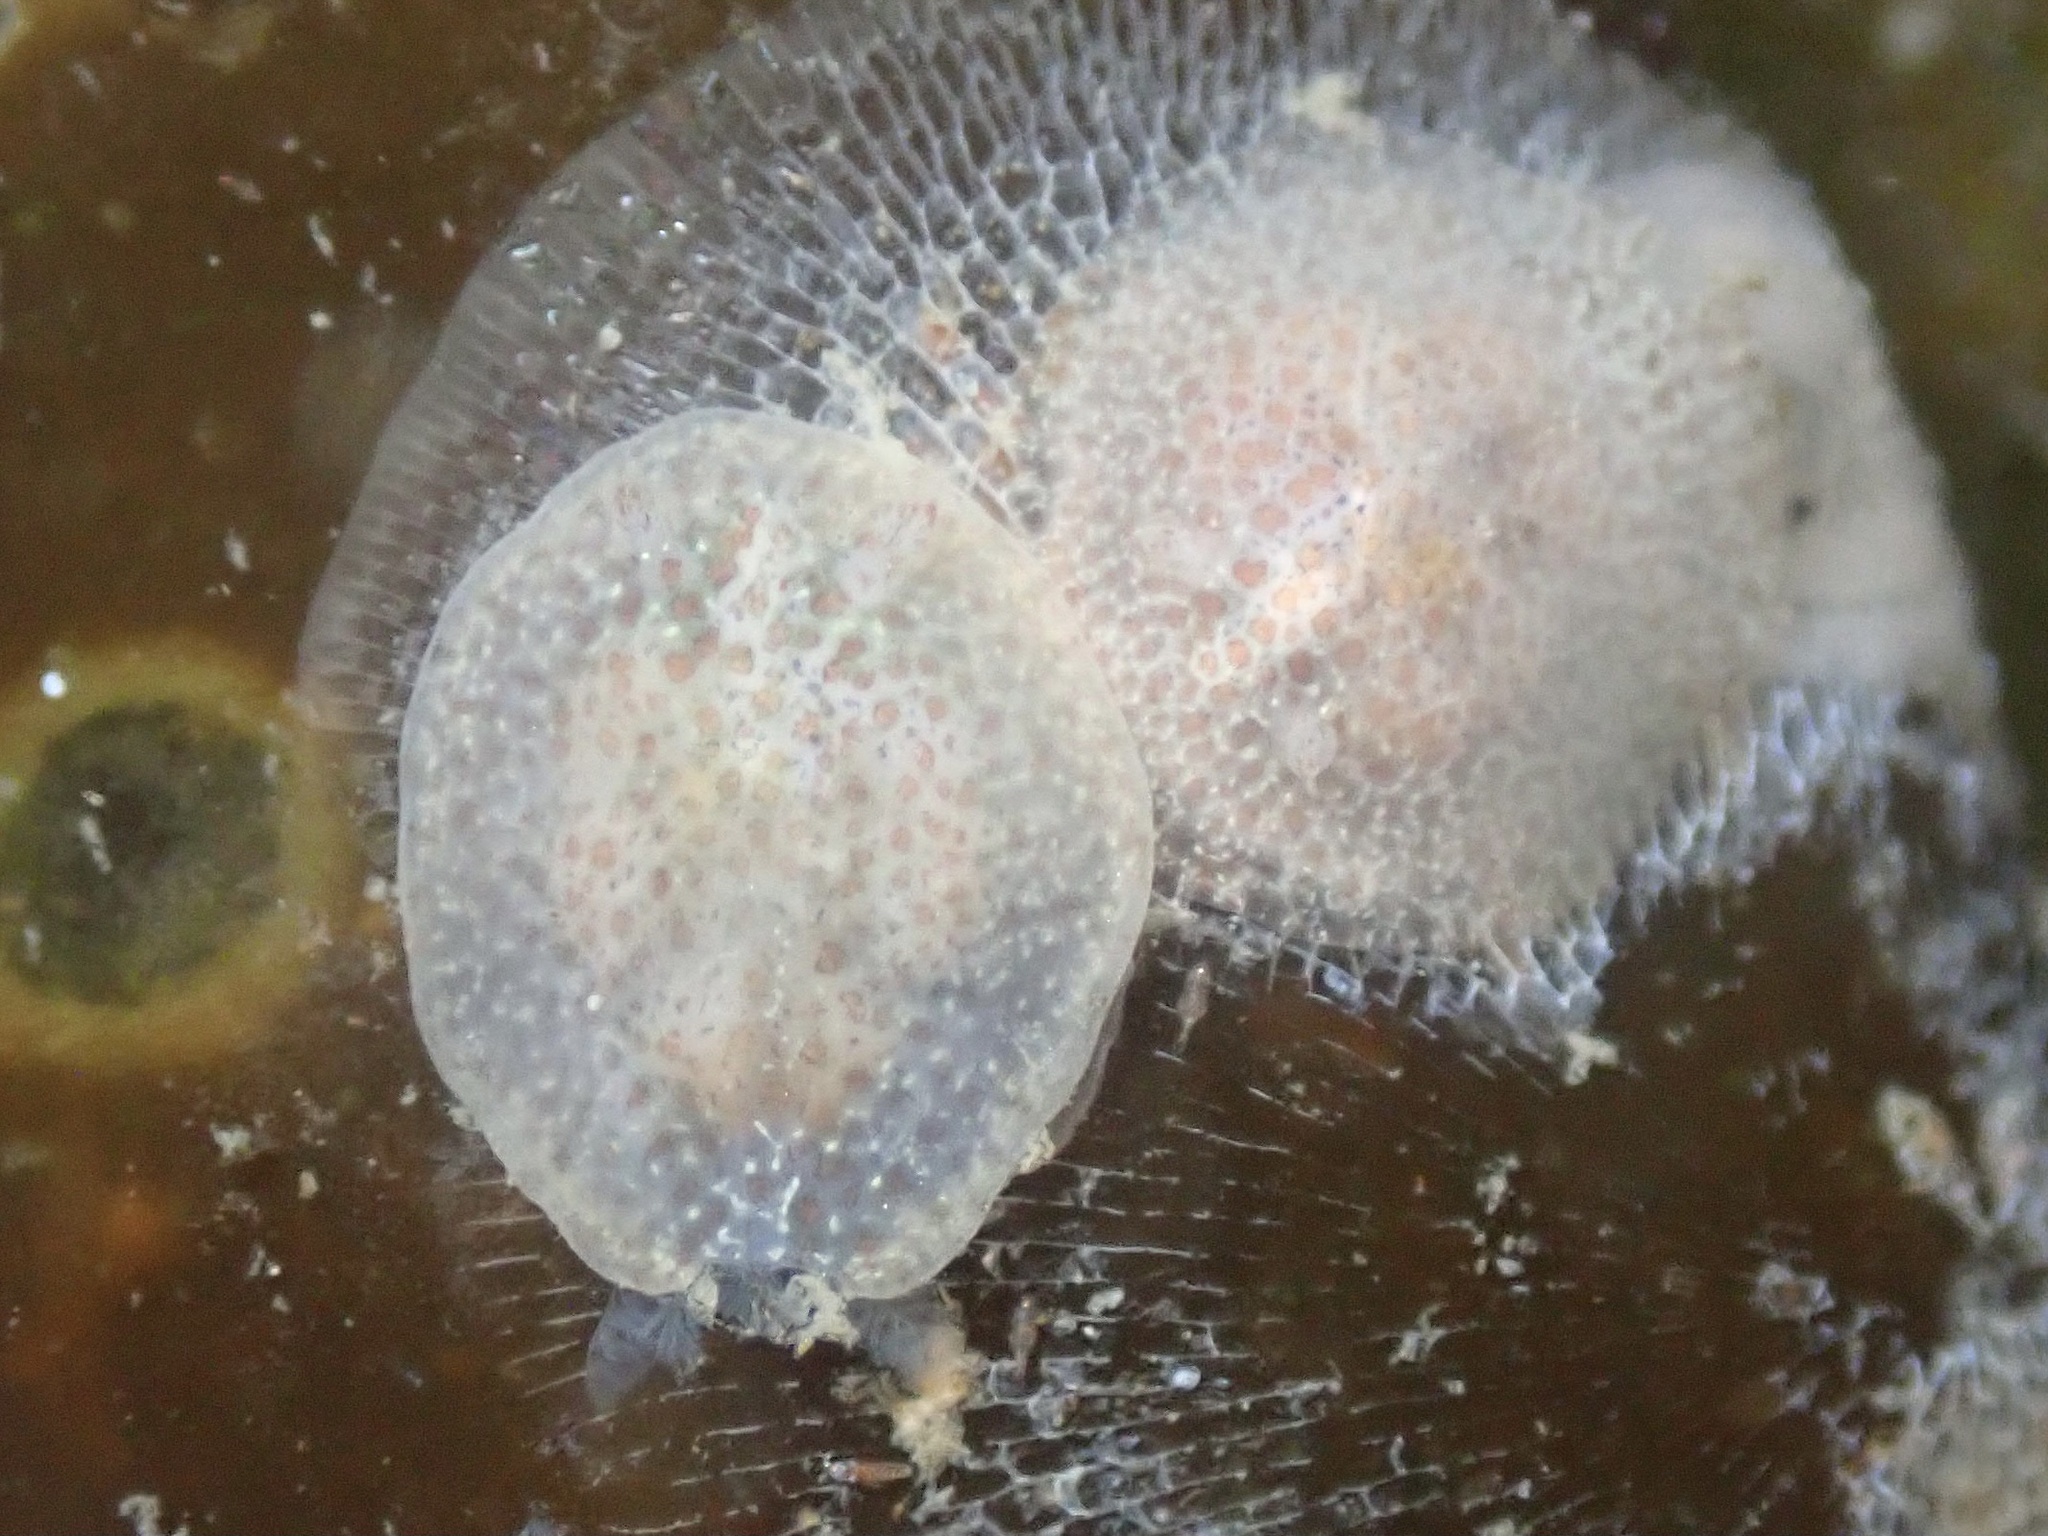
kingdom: Animalia
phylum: Mollusca
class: Gastropoda
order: Nudibranchia
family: Corambidae
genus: Corambe
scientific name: Corambe pacifica
